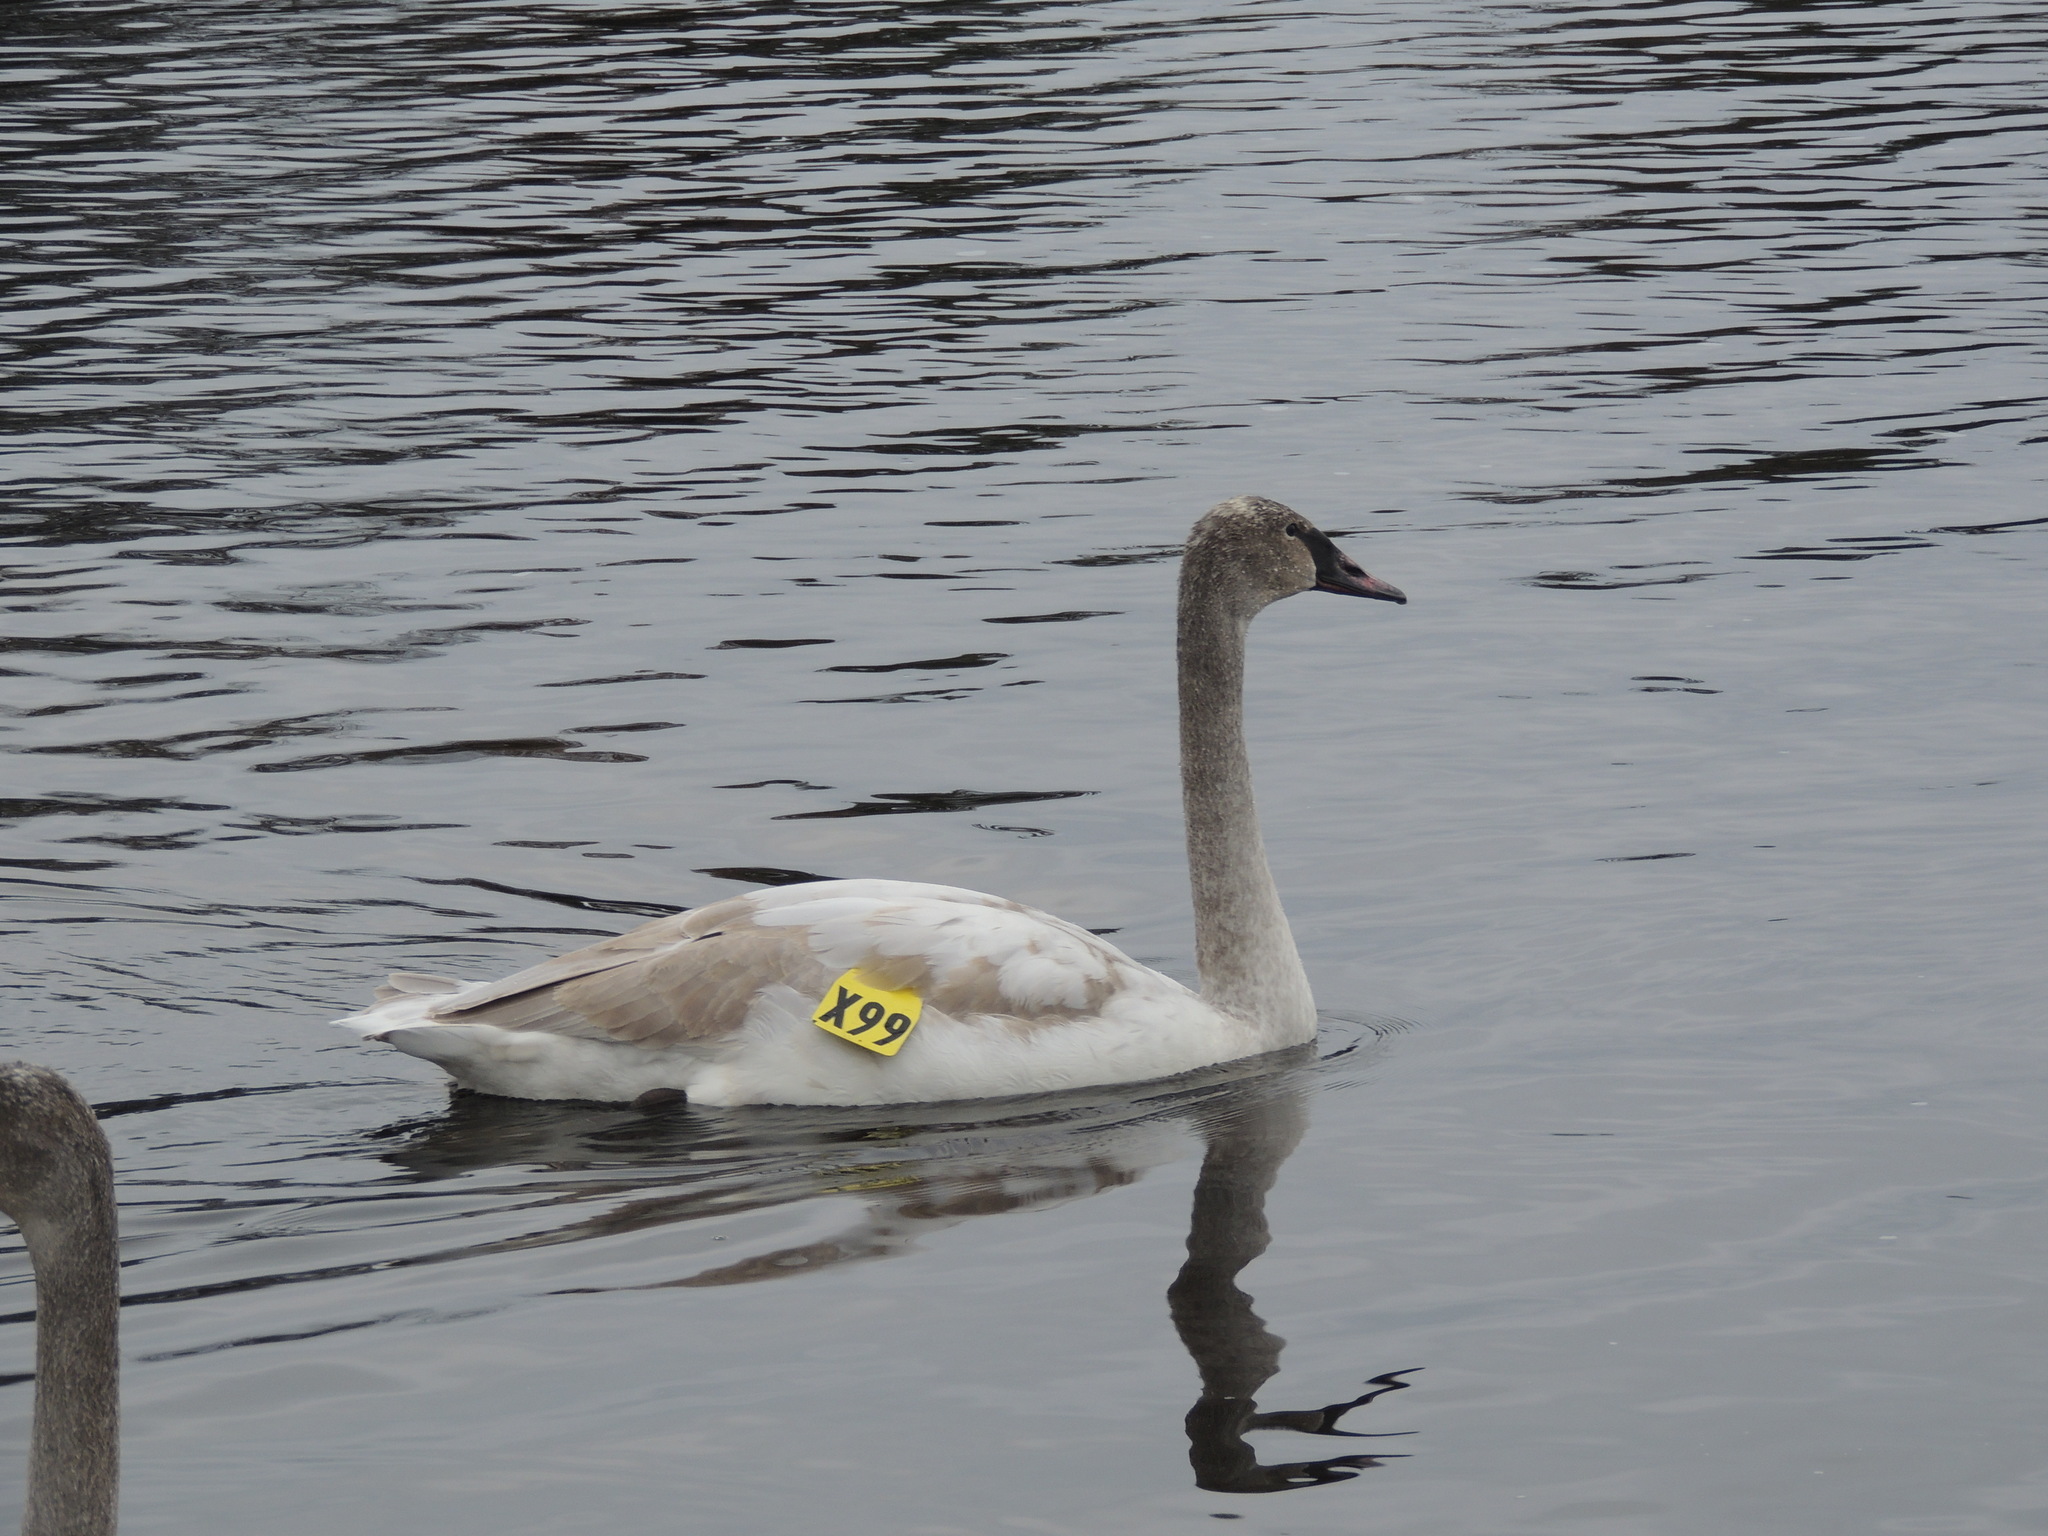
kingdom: Animalia
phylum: Chordata
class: Aves
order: Anseriformes
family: Anatidae
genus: Cygnus
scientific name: Cygnus buccinator
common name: Trumpeter swan
